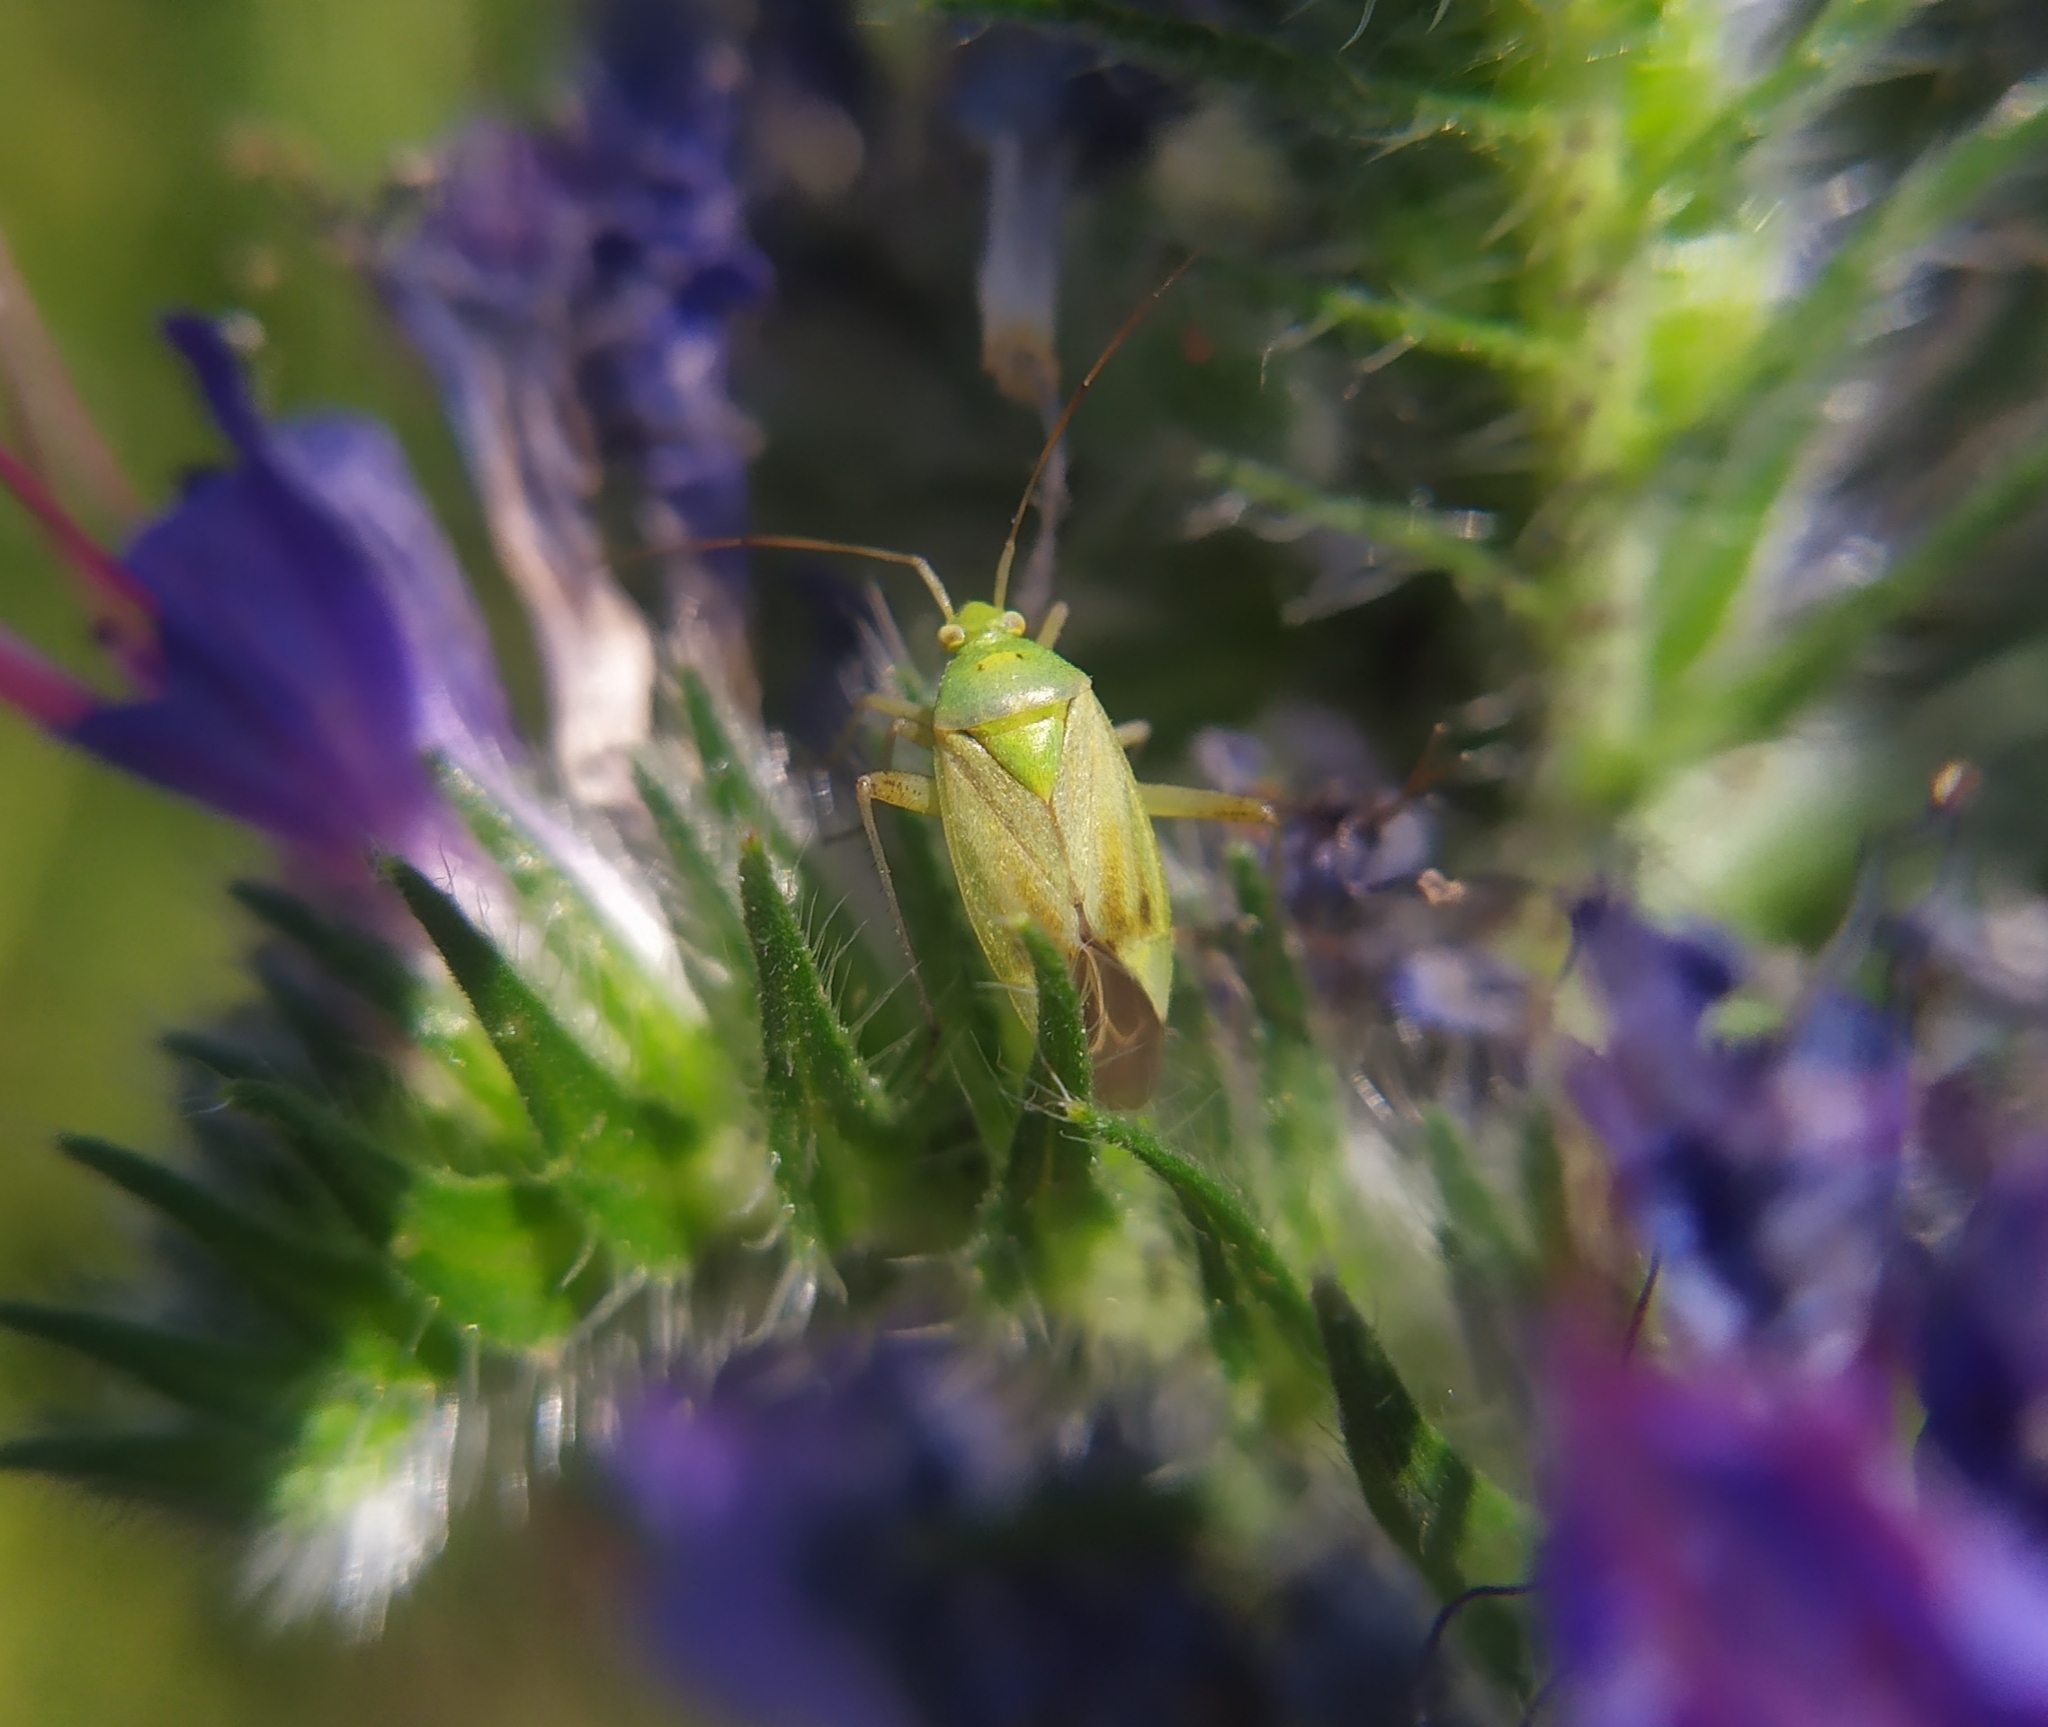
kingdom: Animalia
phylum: Arthropoda
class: Insecta
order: Hemiptera
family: Miridae
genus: Closterotomus
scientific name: Closterotomus norvegicus
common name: Plant bug
